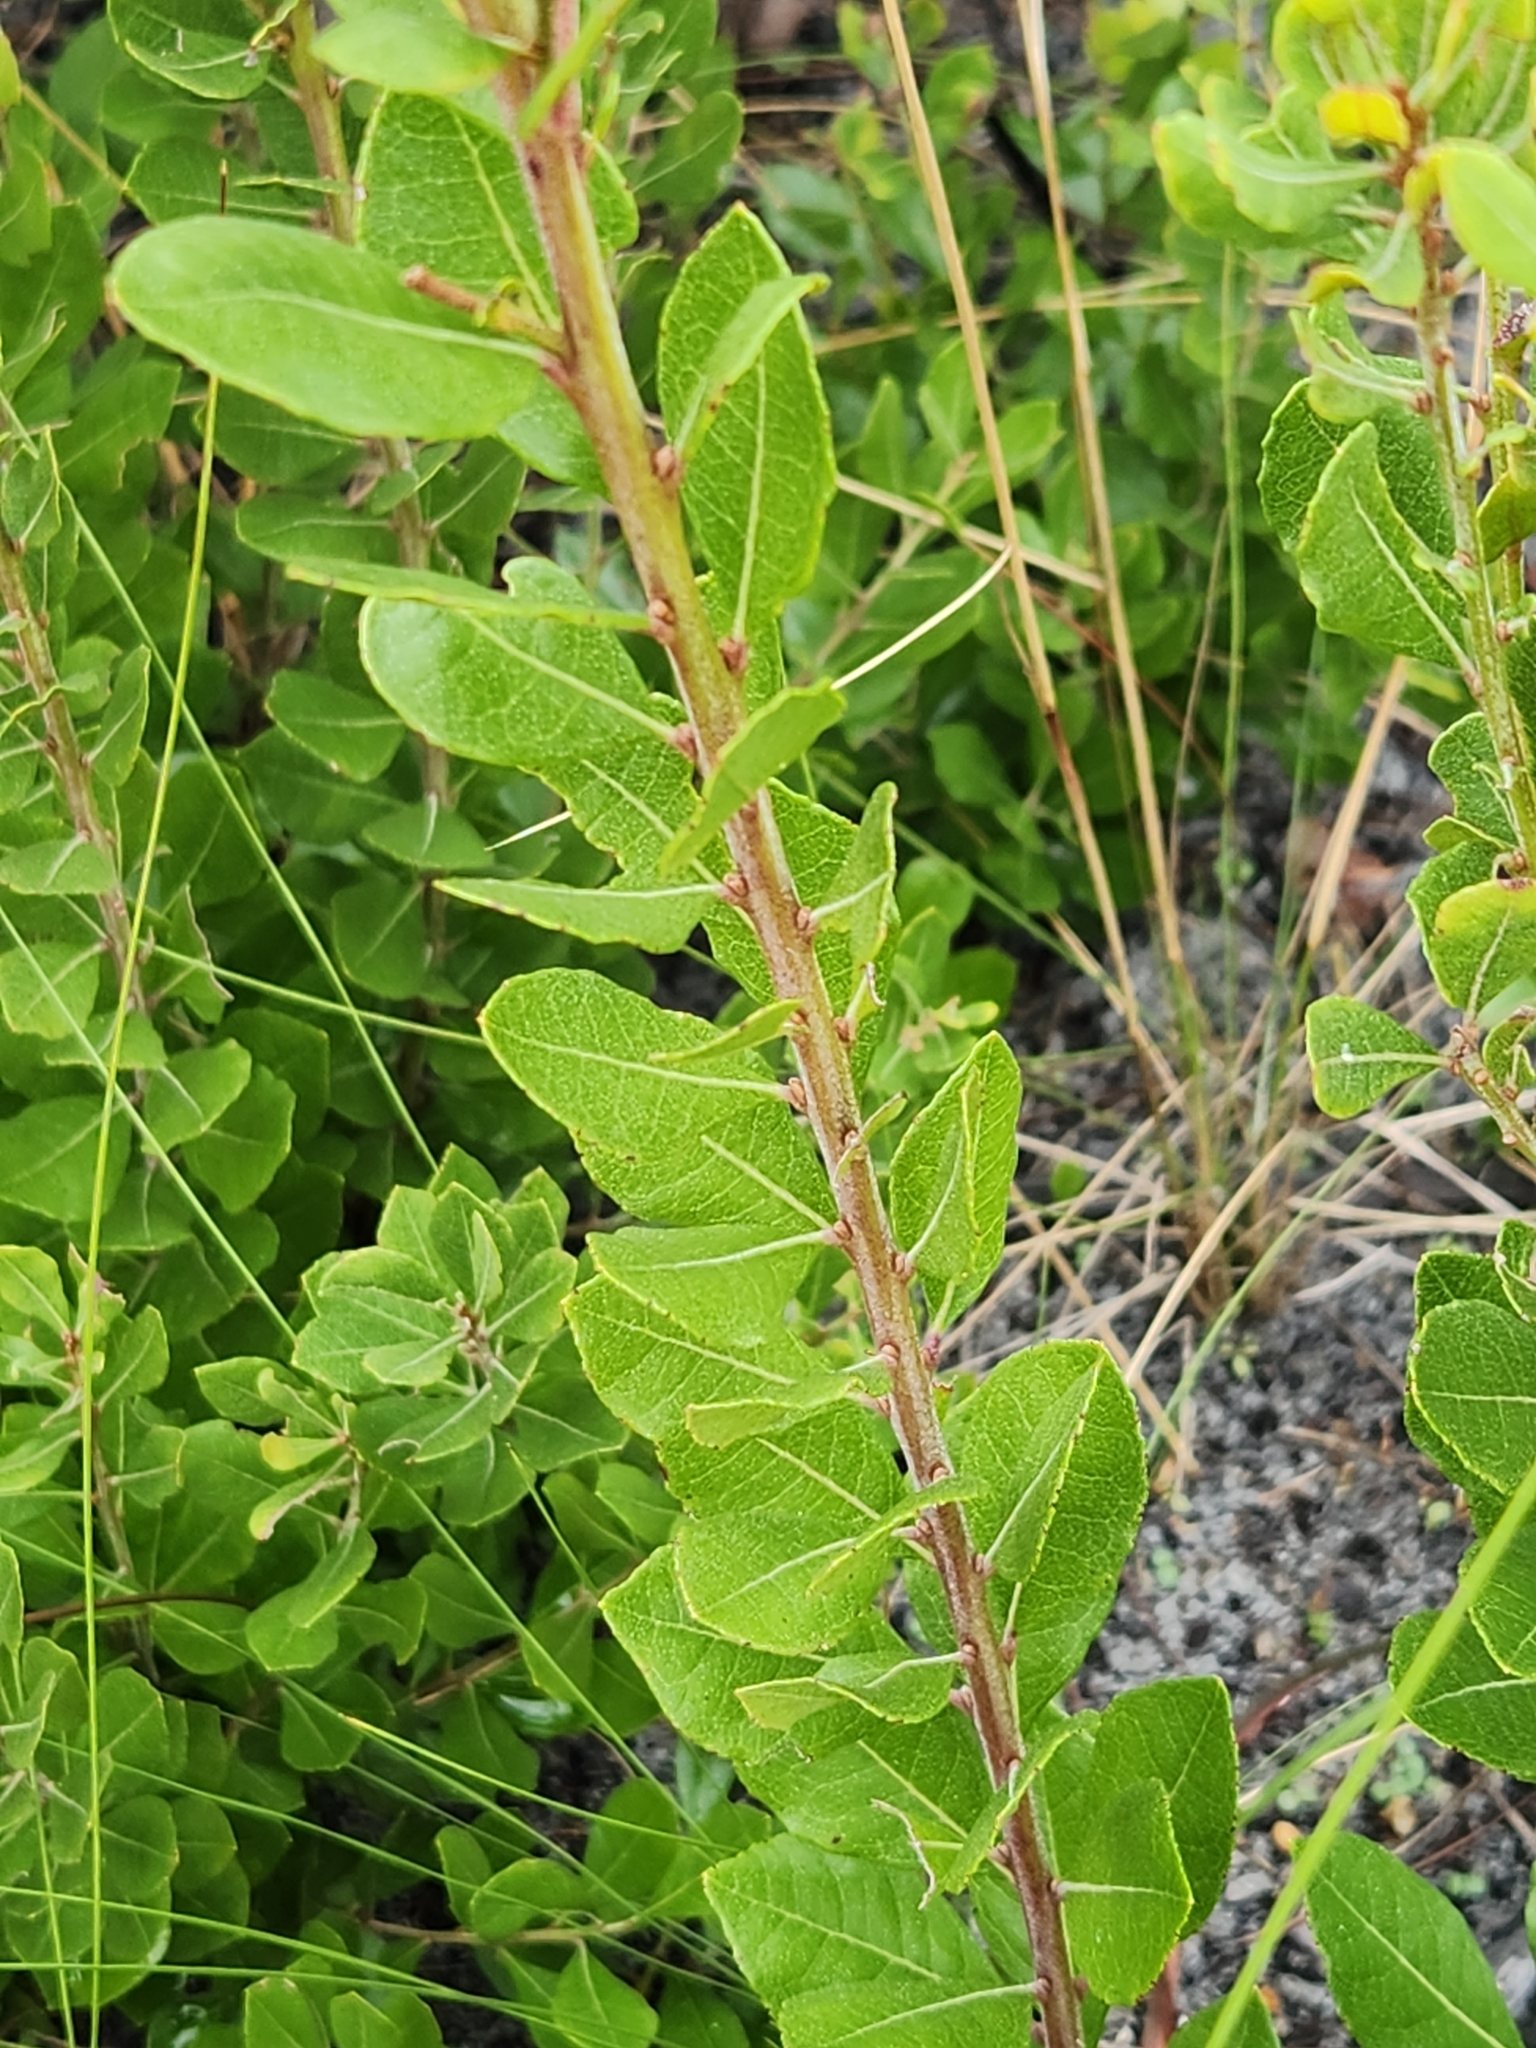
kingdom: Plantae
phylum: Tracheophyta
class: Magnoliopsida
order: Ericales
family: Ericaceae
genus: Lyonia
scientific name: Lyonia fruticosa
